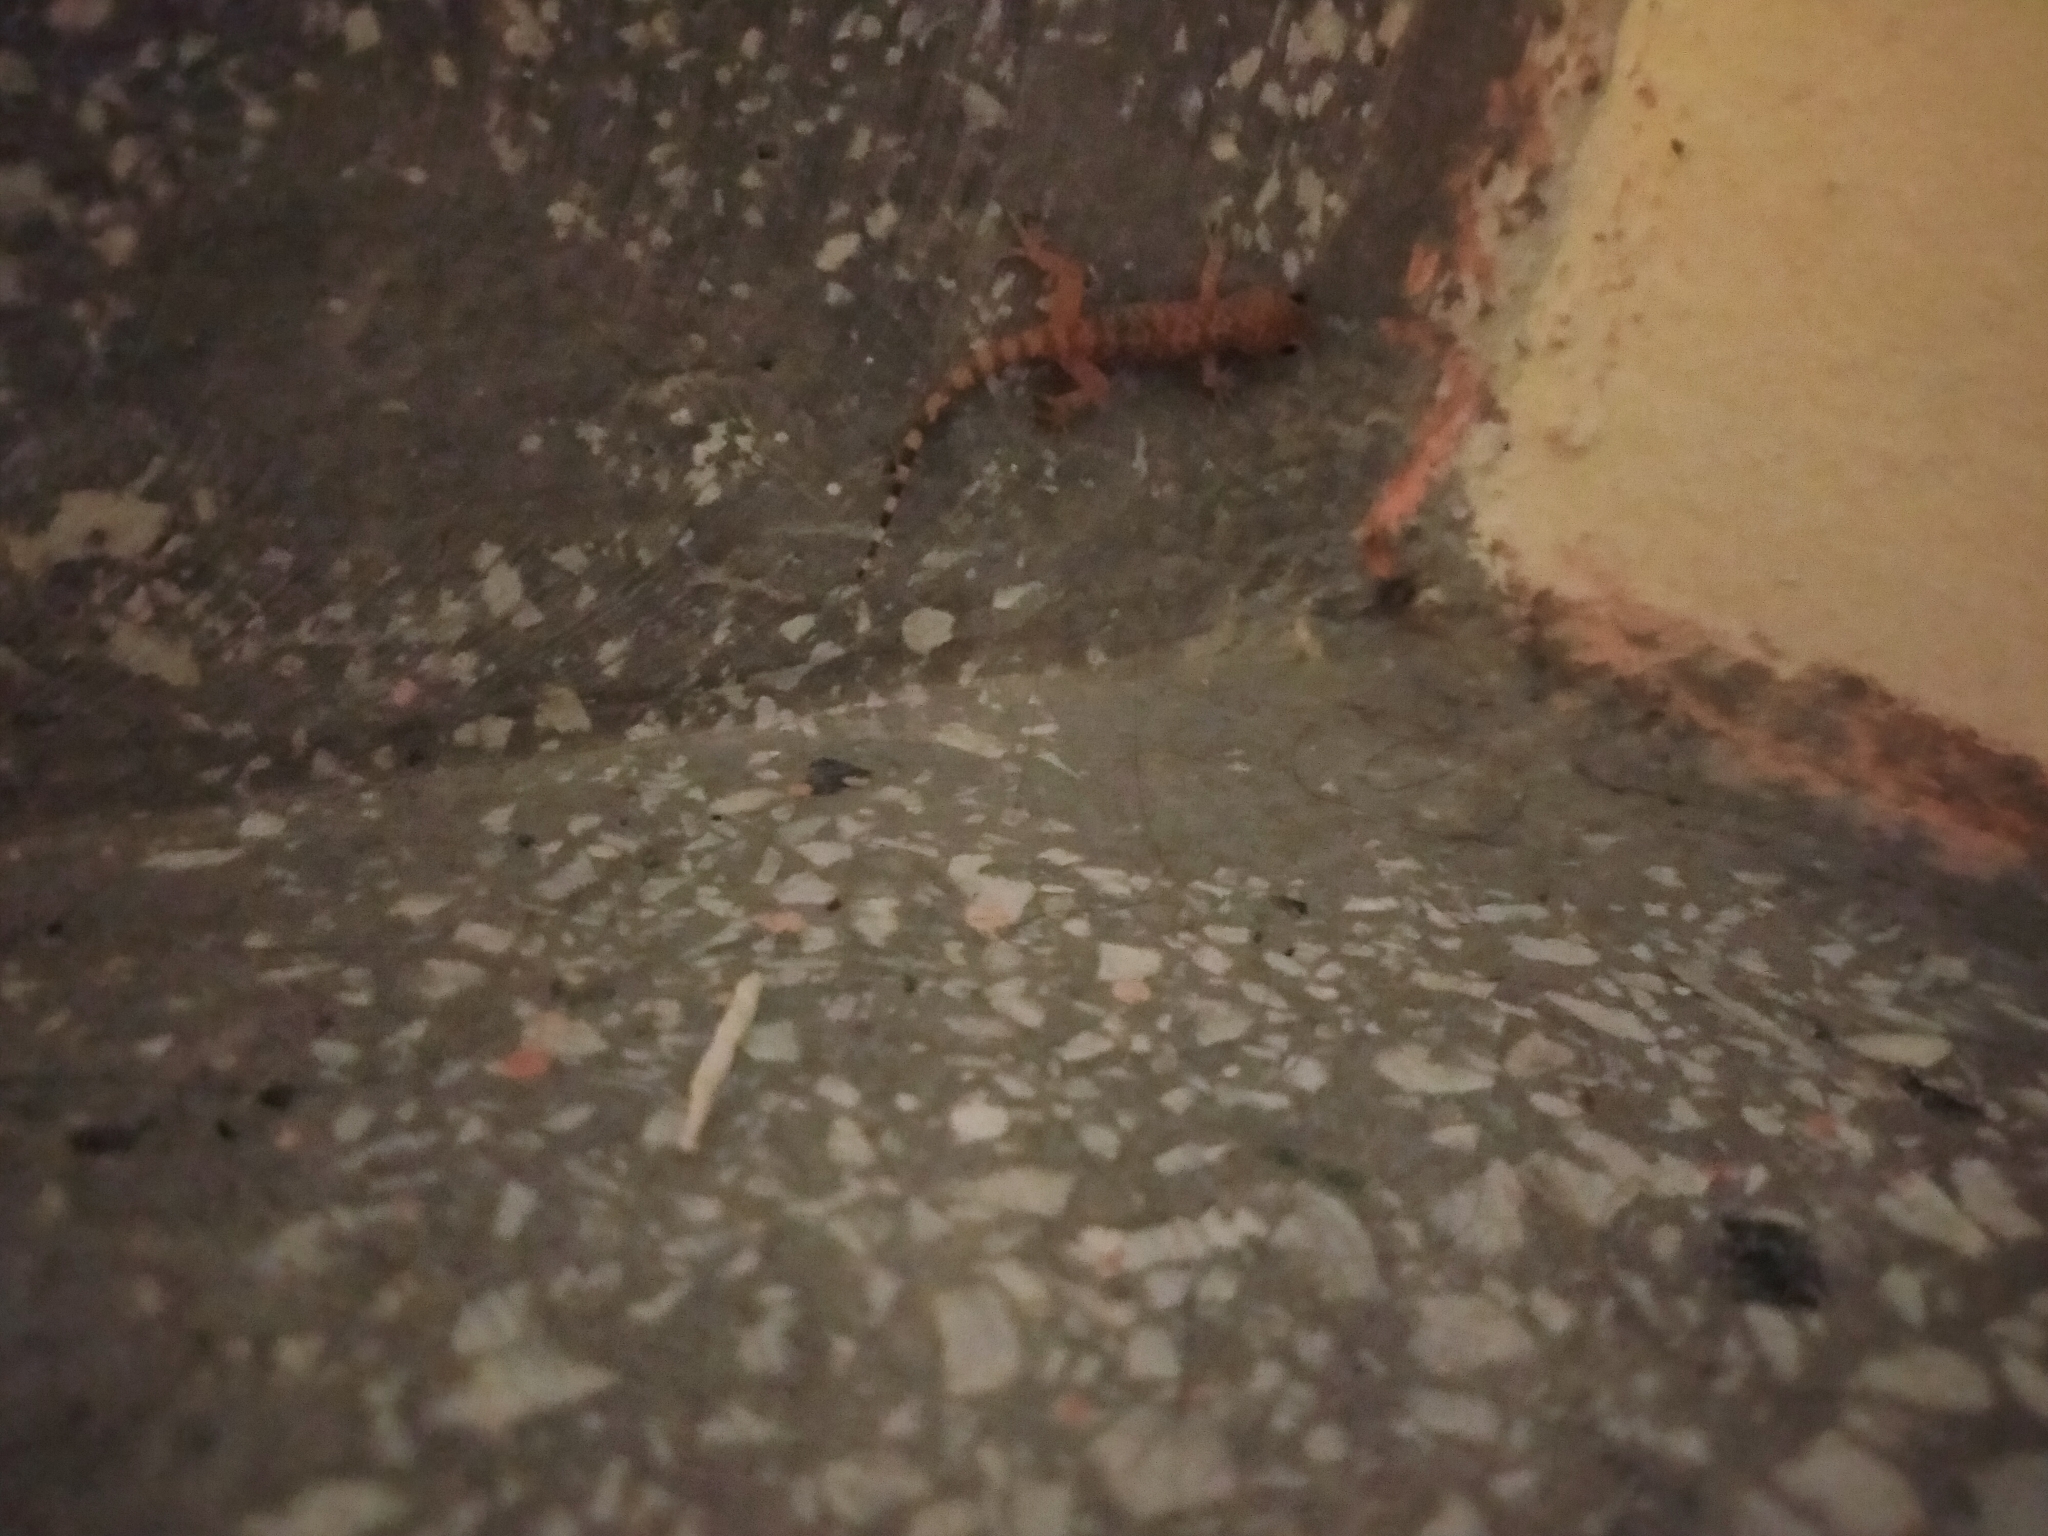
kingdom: Animalia
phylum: Chordata
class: Squamata
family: Gekkonidae
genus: Hemidactylus
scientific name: Hemidactylus turcicus
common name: Turkish gecko
